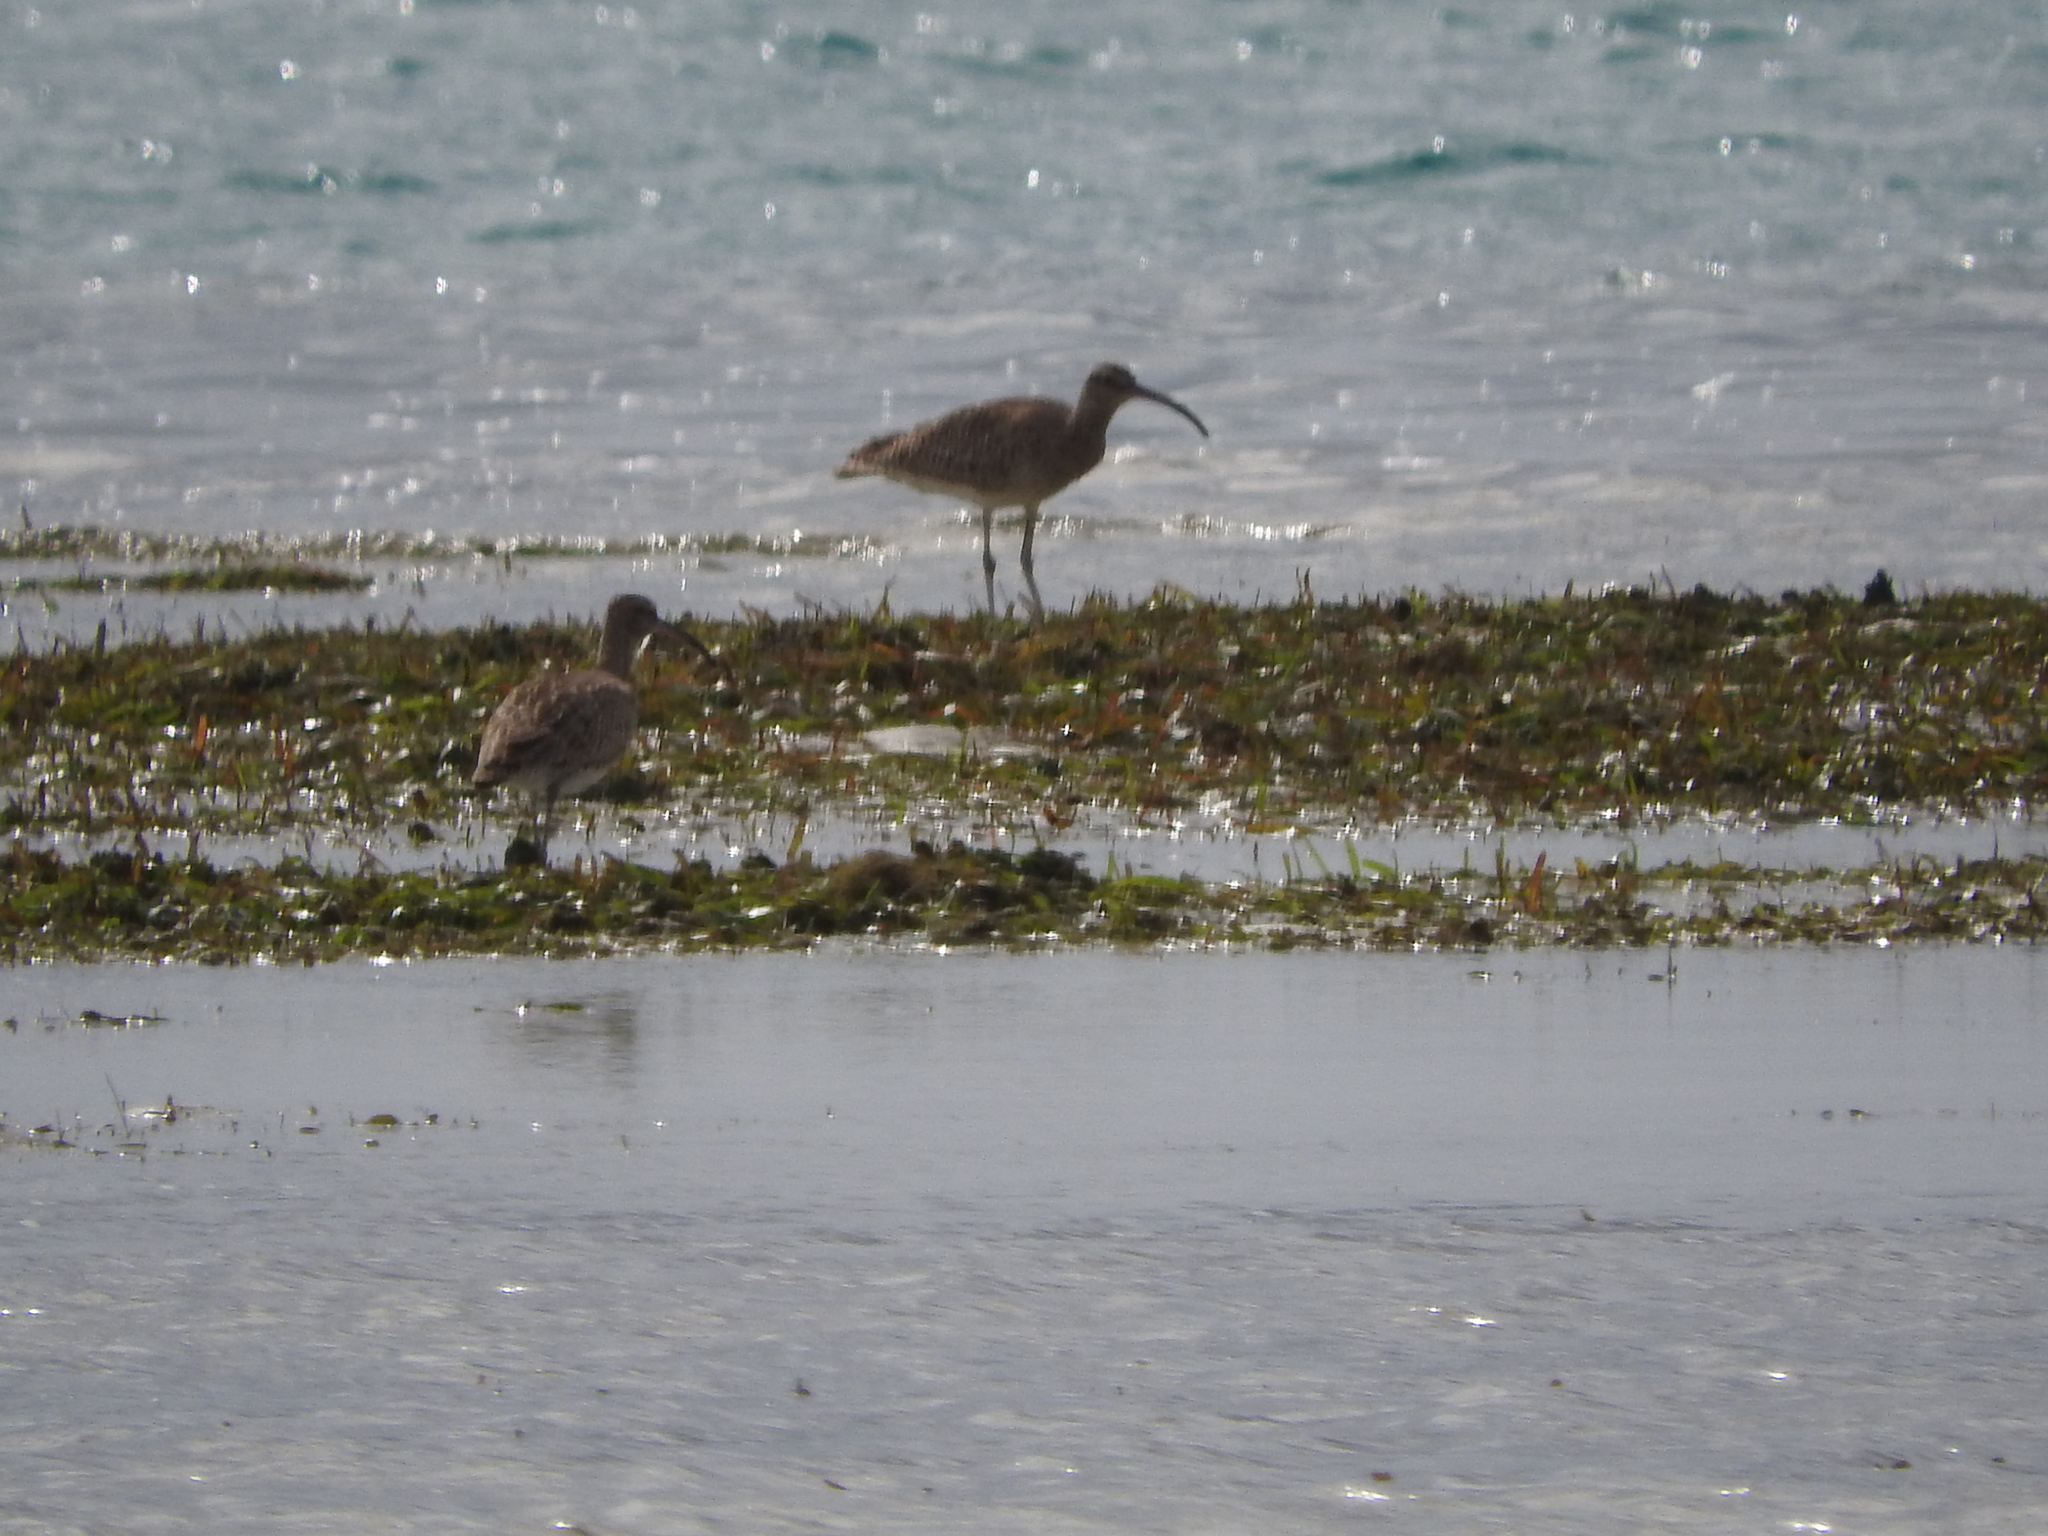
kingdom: Animalia
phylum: Chordata
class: Aves
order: Charadriiformes
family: Scolopacidae
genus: Numenius
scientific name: Numenius phaeopus
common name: Whimbrel
